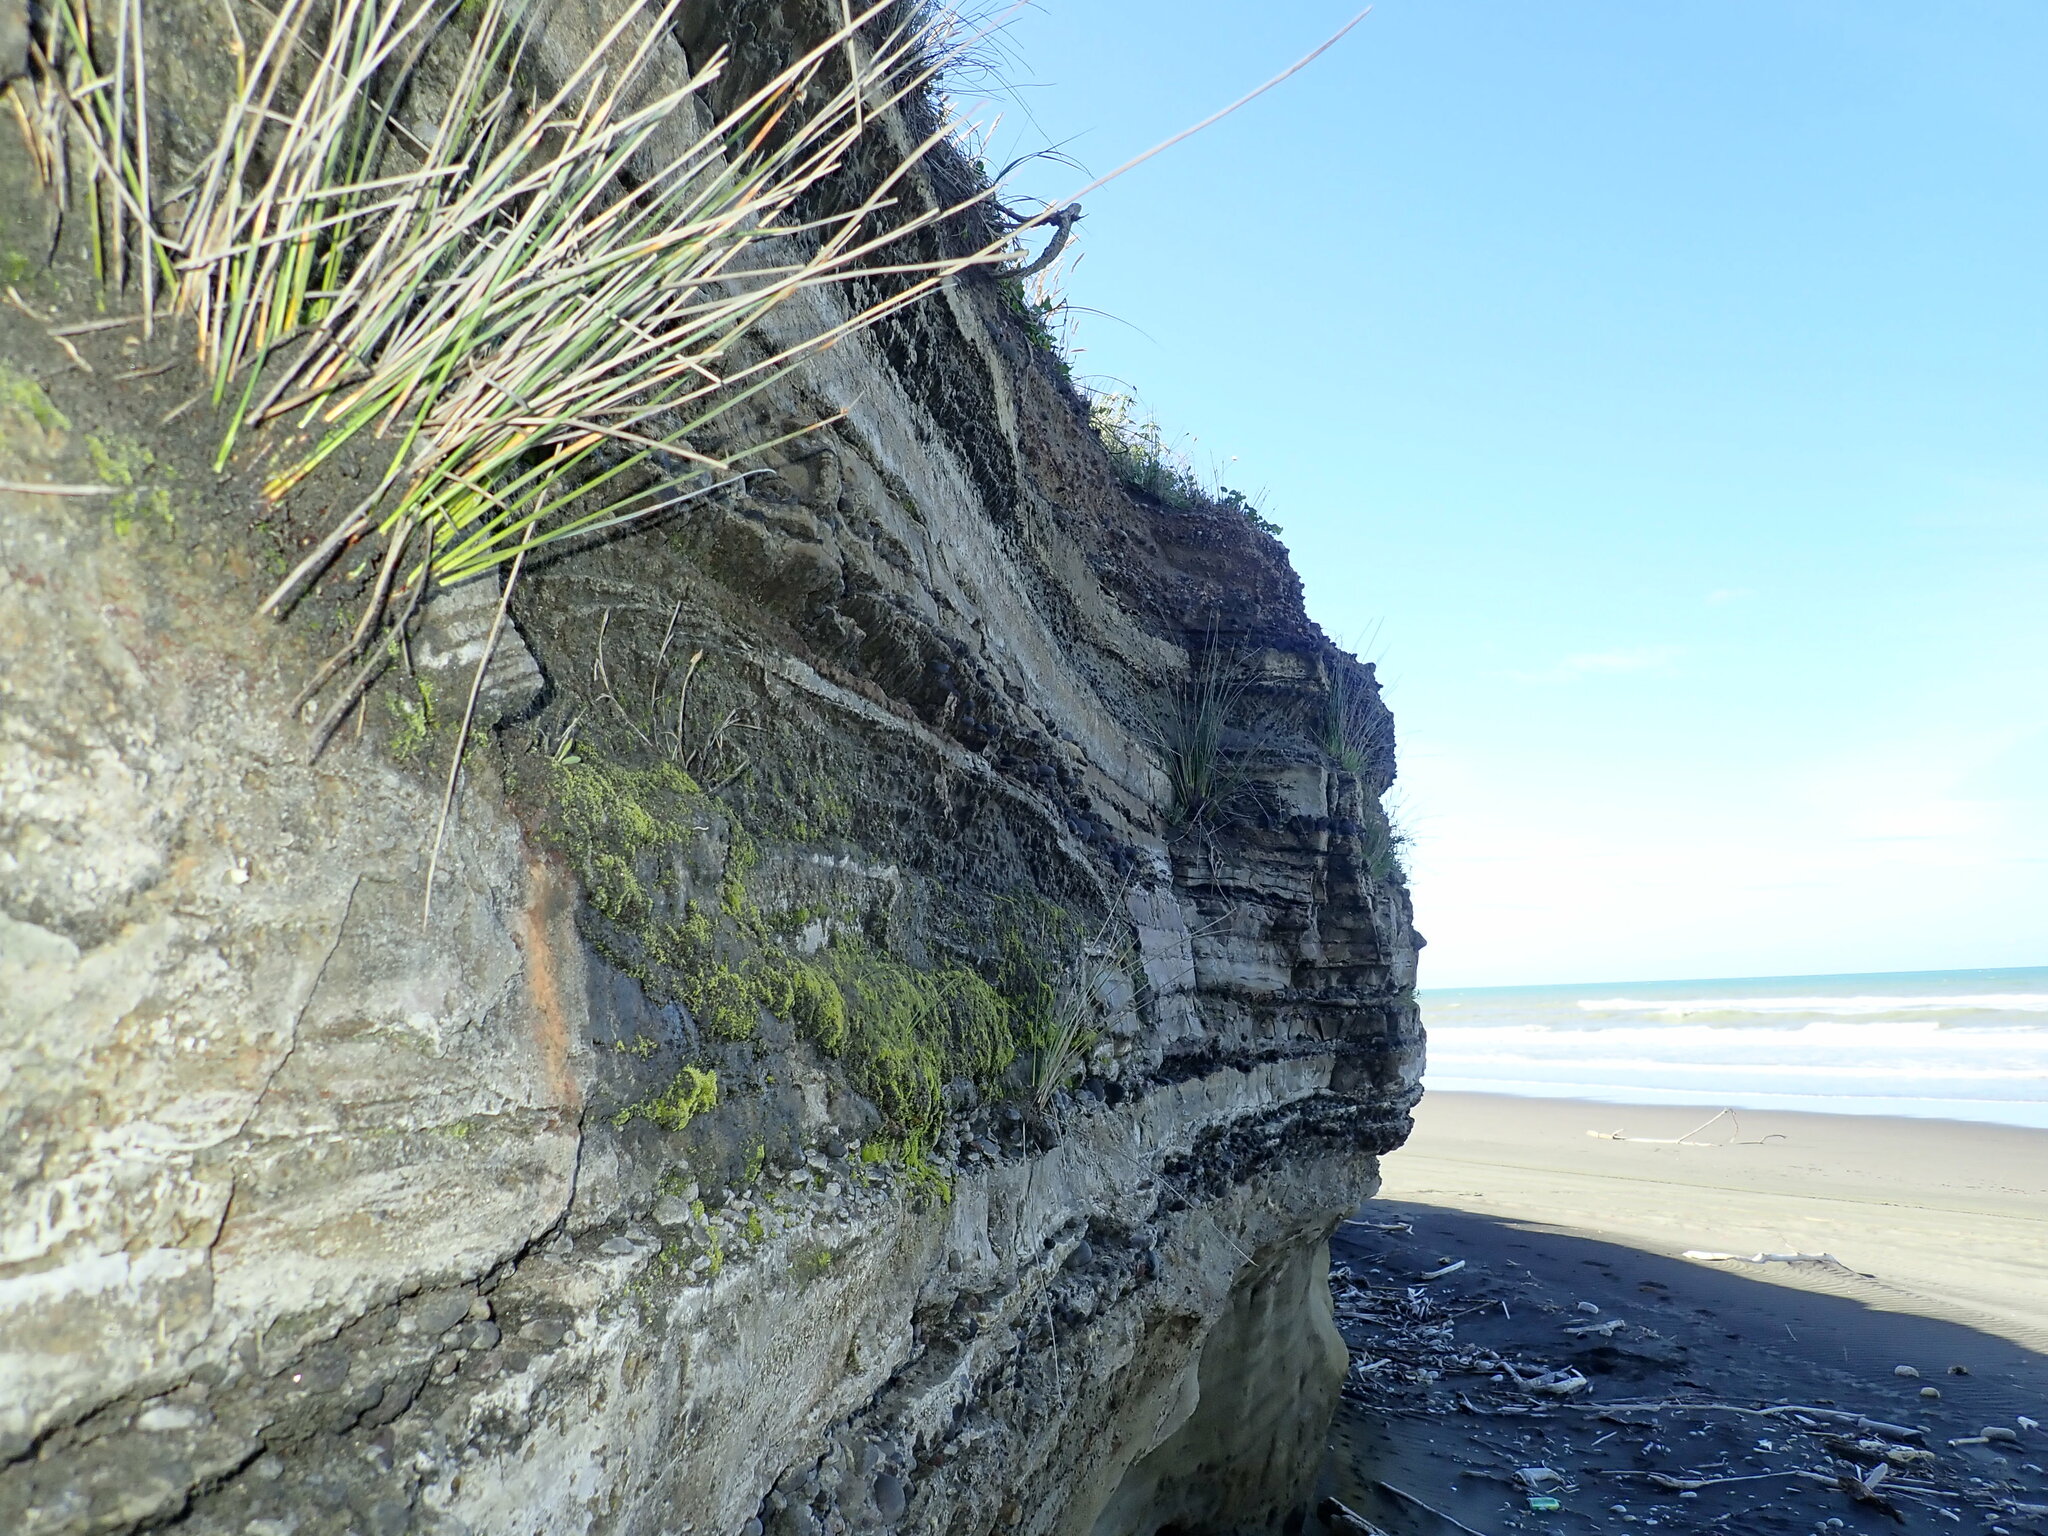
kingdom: Plantae
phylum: Tracheophyta
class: Liliopsida
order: Poales
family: Cyperaceae
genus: Ficinia
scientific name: Ficinia nodosa
